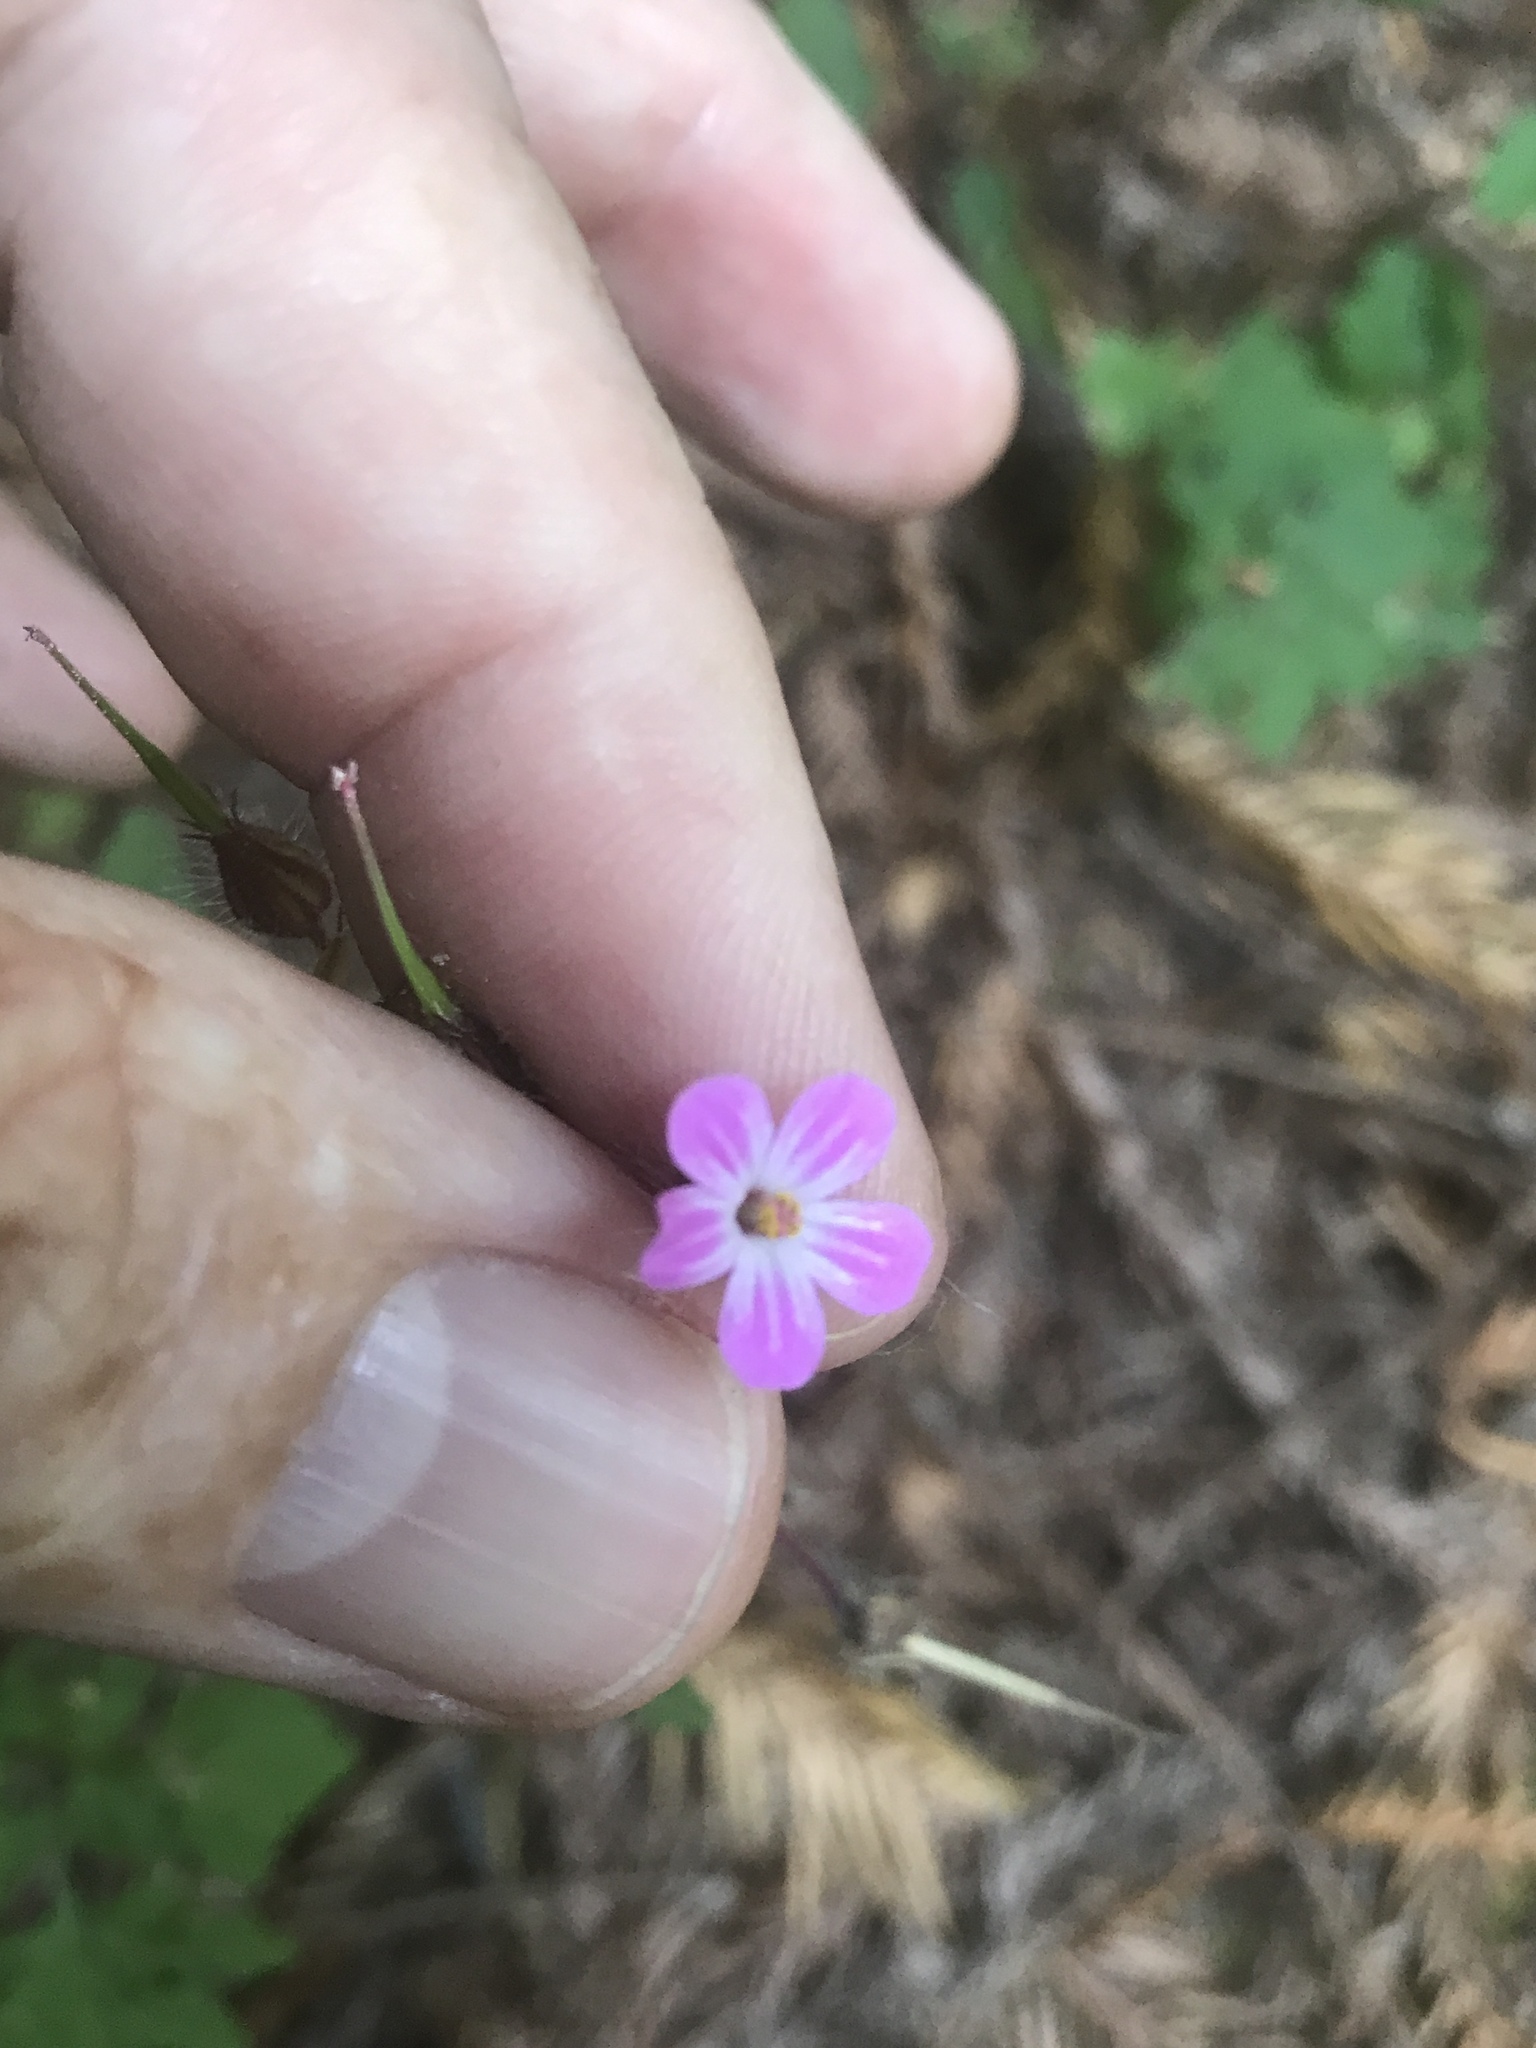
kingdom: Plantae
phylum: Tracheophyta
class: Magnoliopsida
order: Geraniales
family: Geraniaceae
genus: Geranium
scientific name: Geranium robertianum
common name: Herb-robert
